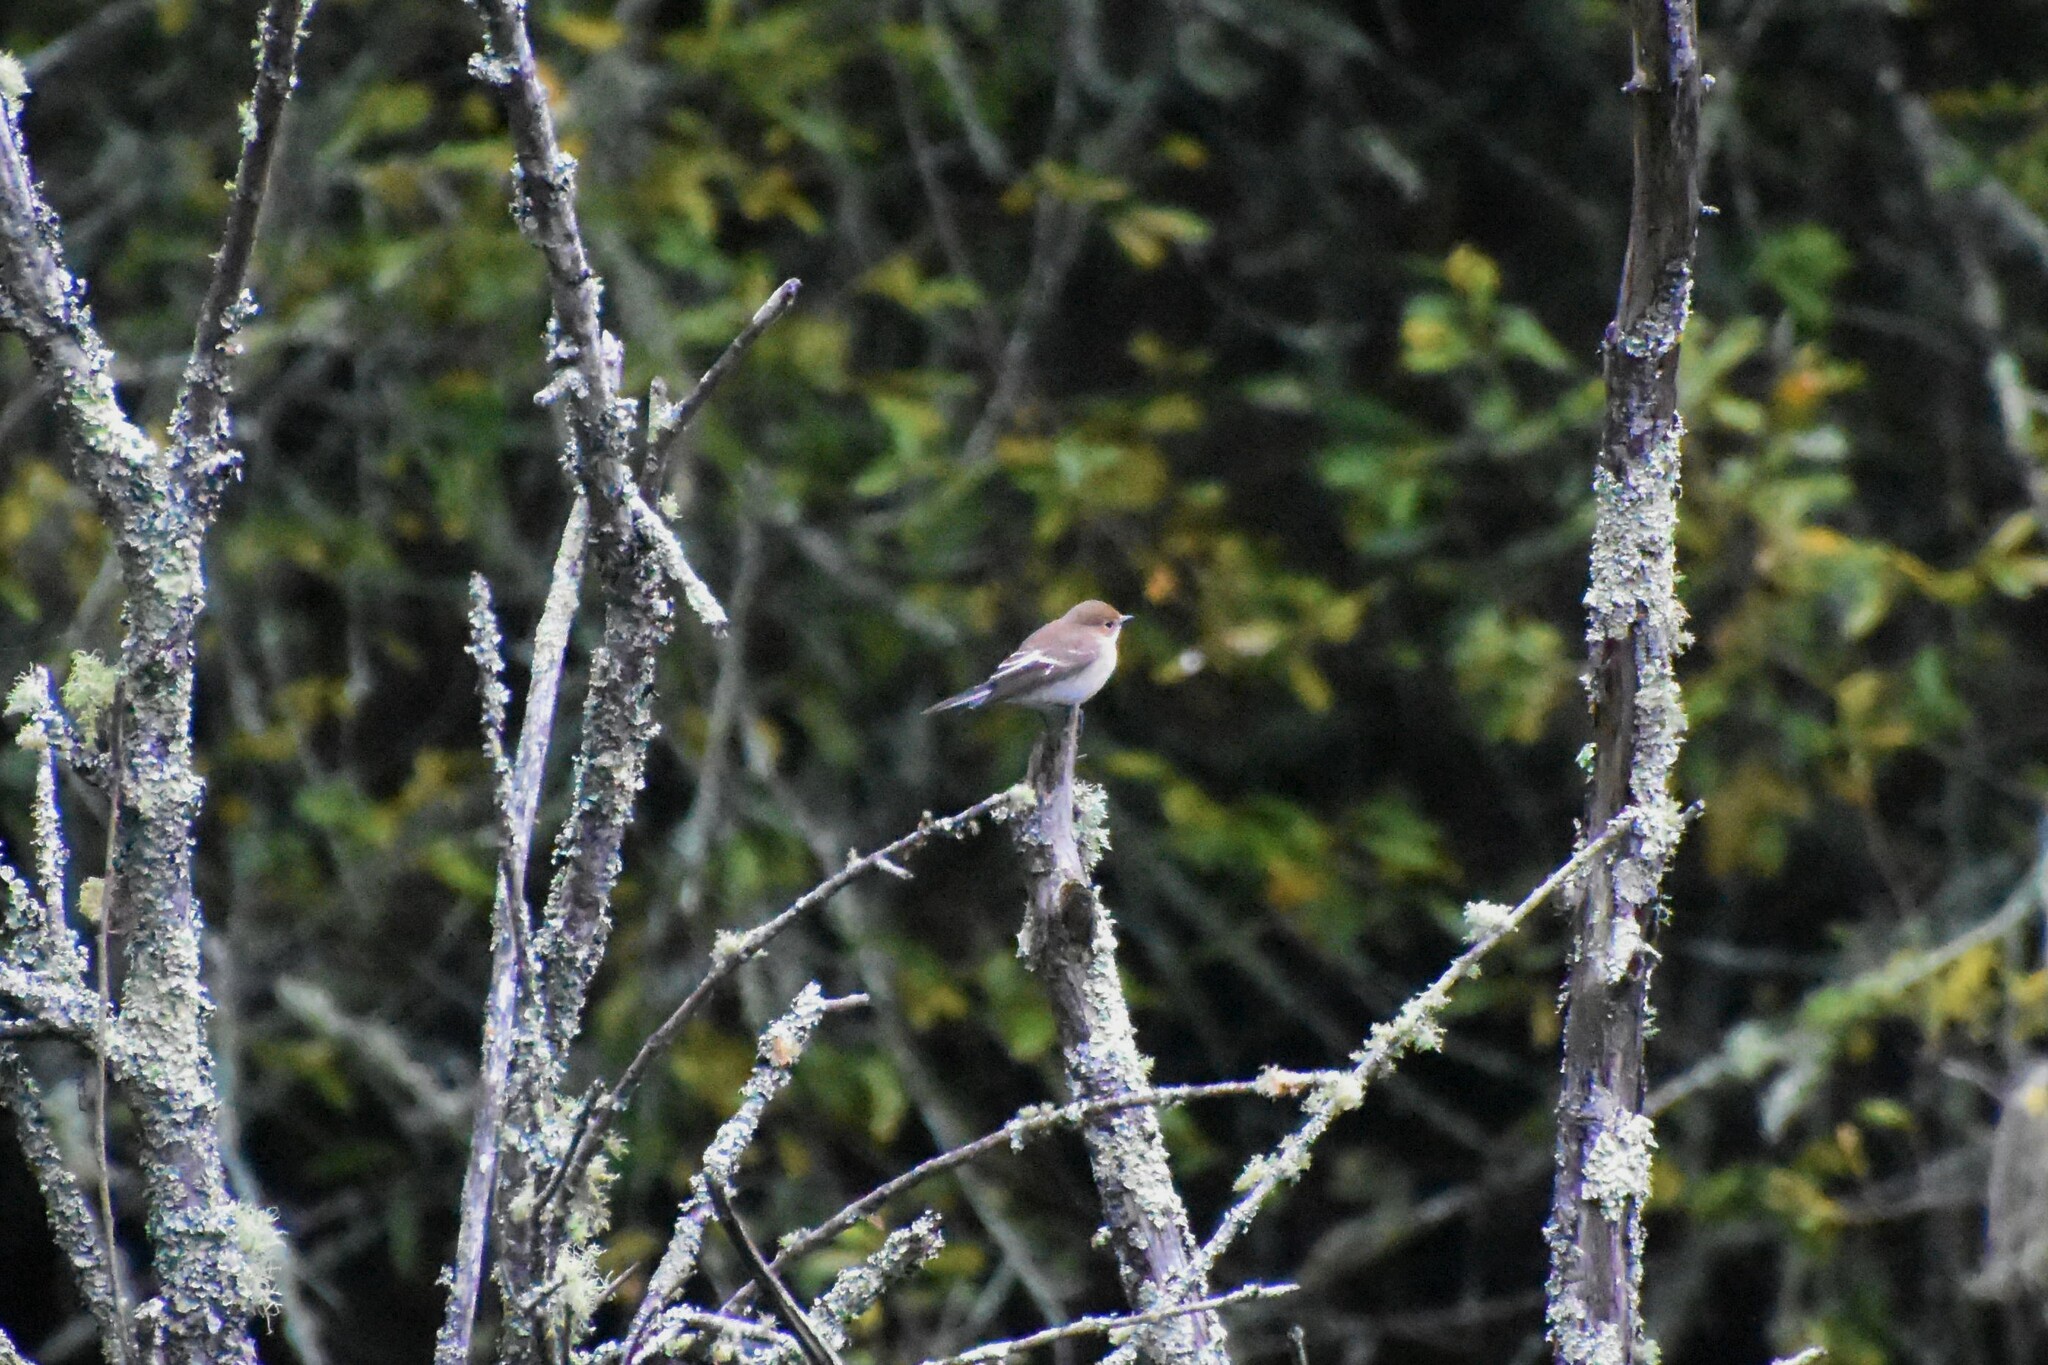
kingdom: Animalia
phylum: Chordata
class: Aves
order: Passeriformes
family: Muscicapidae
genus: Ficedula
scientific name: Ficedula hypoleuca
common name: European pied flycatcher
